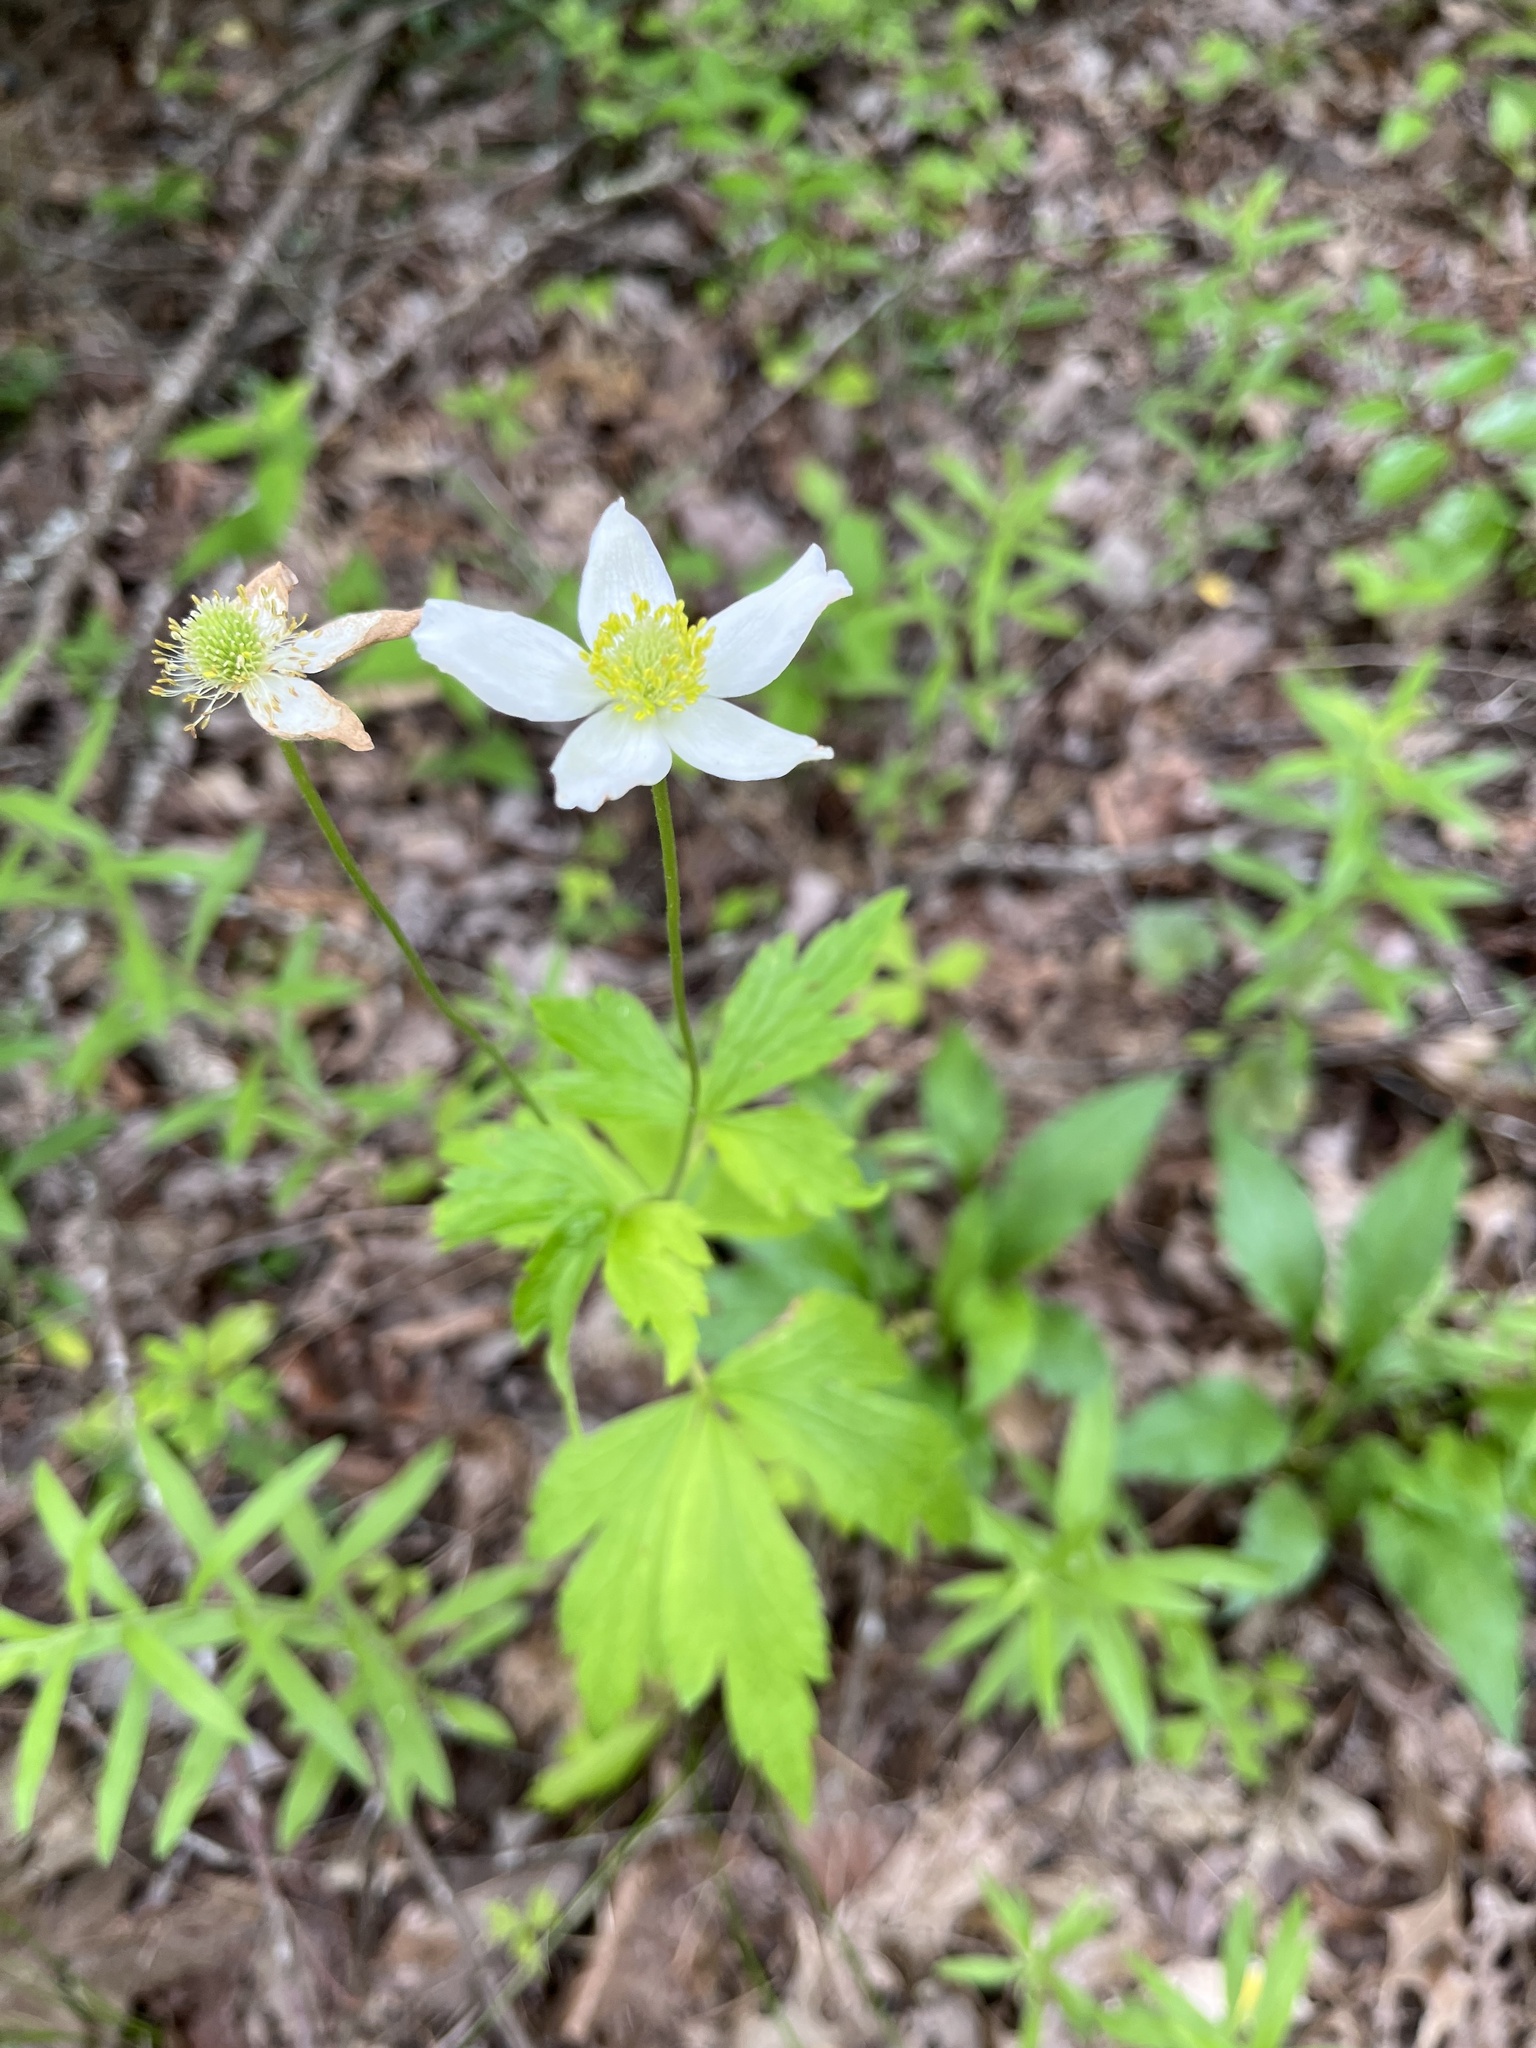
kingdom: Plantae
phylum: Tracheophyta
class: Magnoliopsida
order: Ranunculales
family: Ranunculaceae
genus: Anemone
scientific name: Anemone virginiana
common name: Tall anemone
